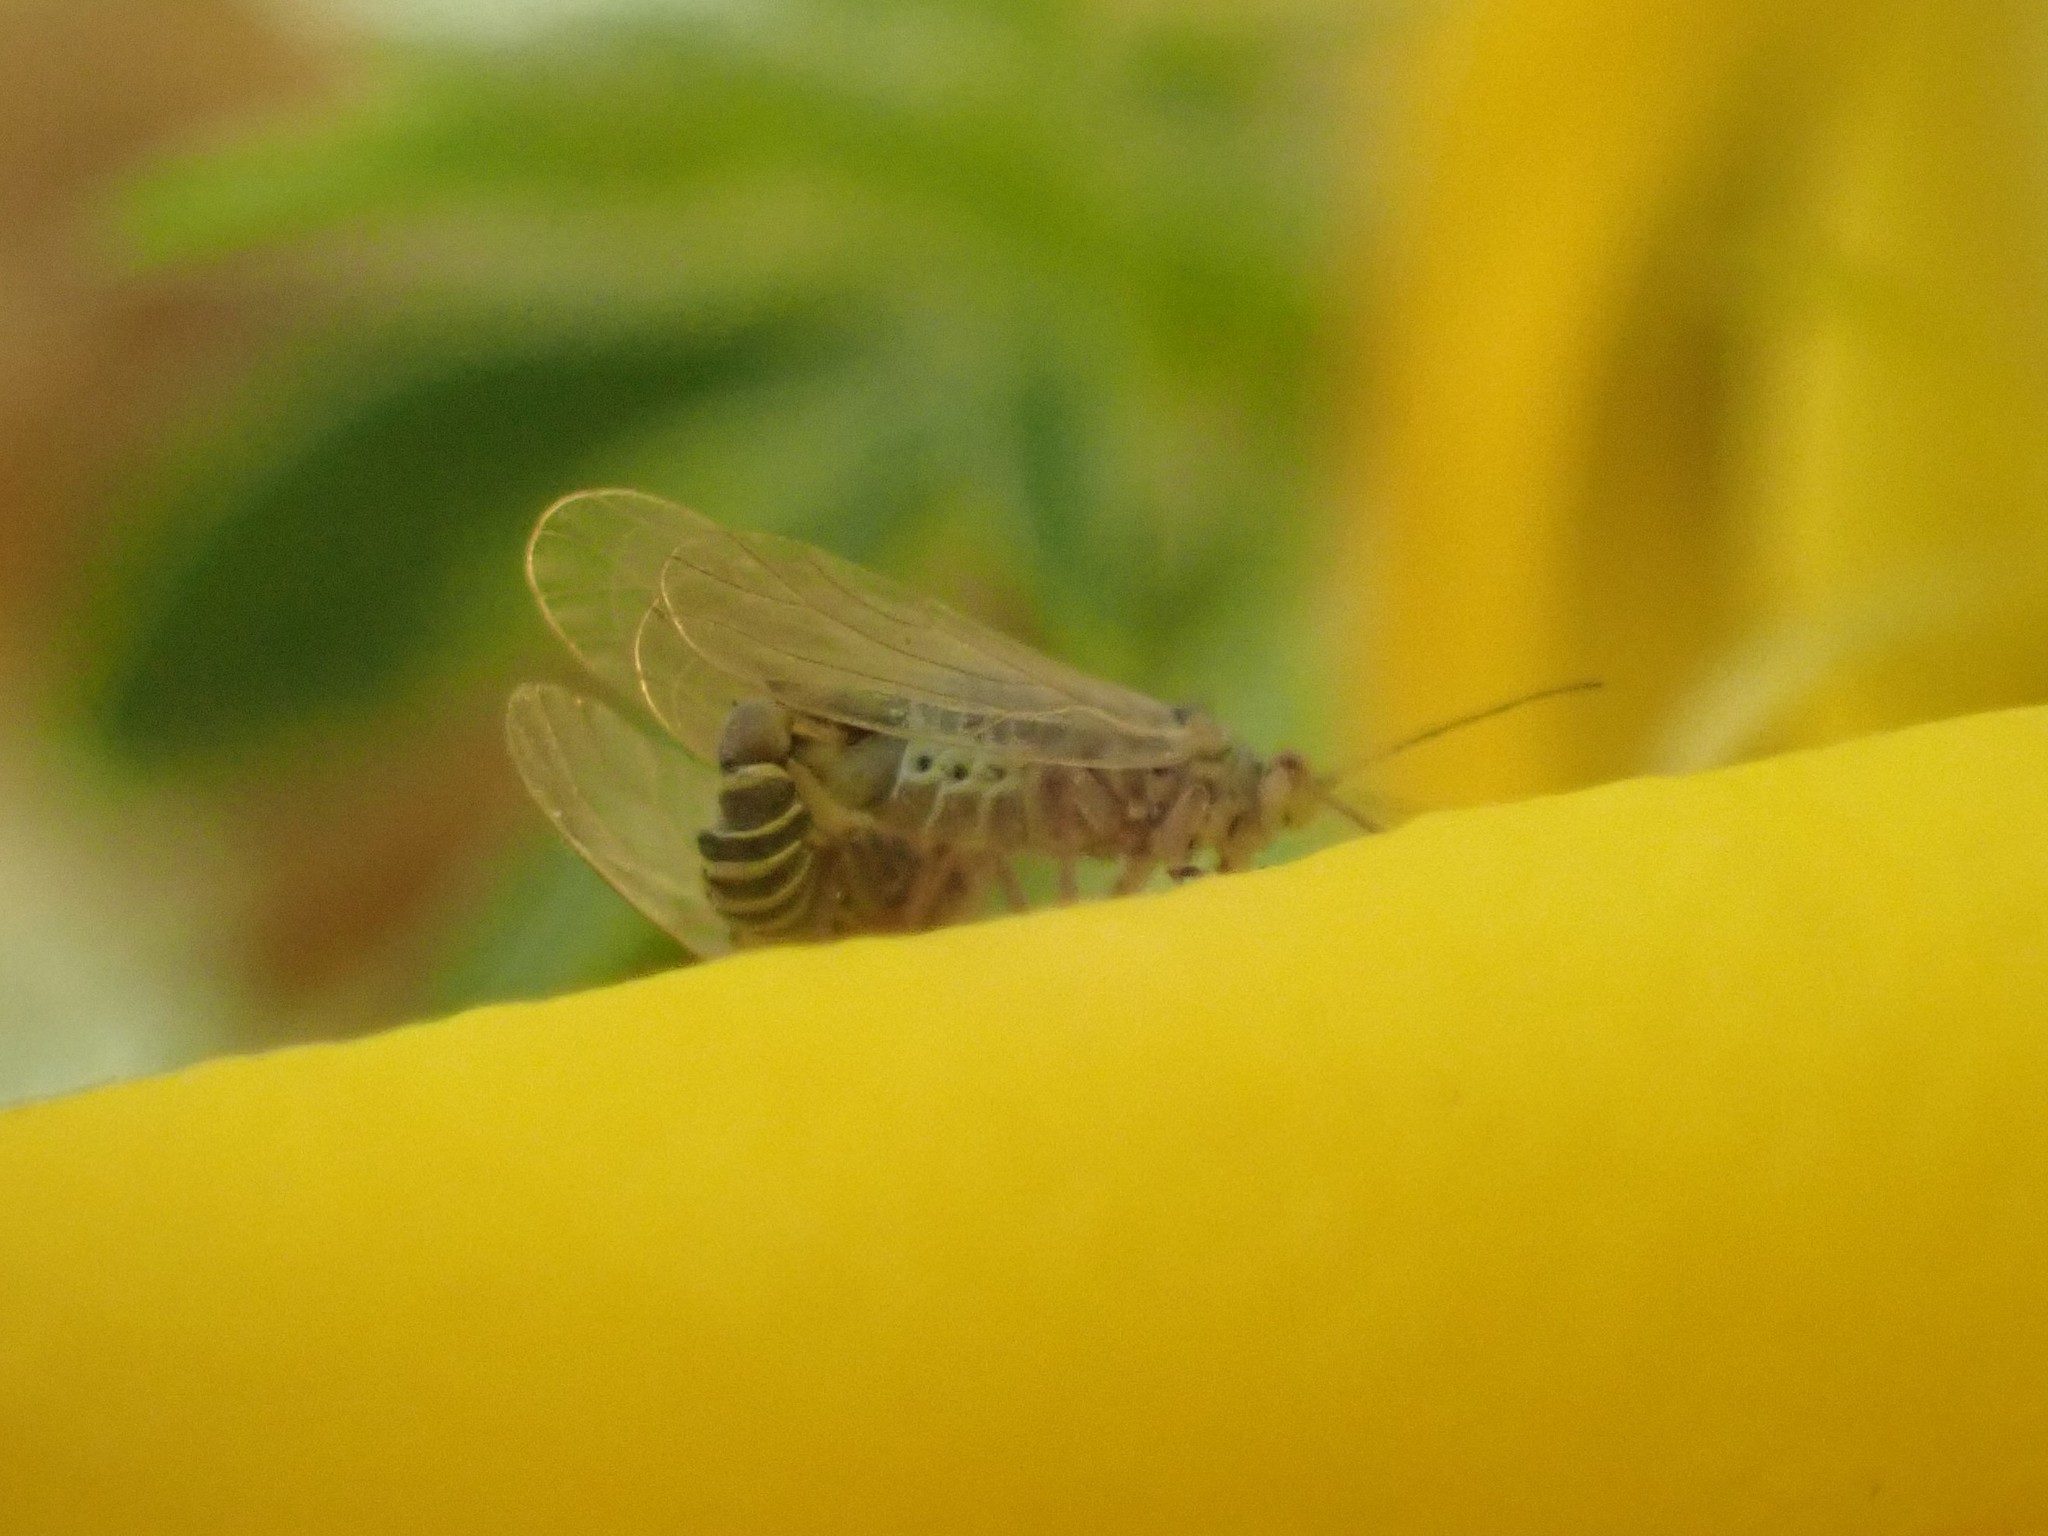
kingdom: Animalia
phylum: Arthropoda
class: Insecta
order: Hemiptera
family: Psyllidae
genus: Arytainilla
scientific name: Arytainilla spartiophila
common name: Psyllid
